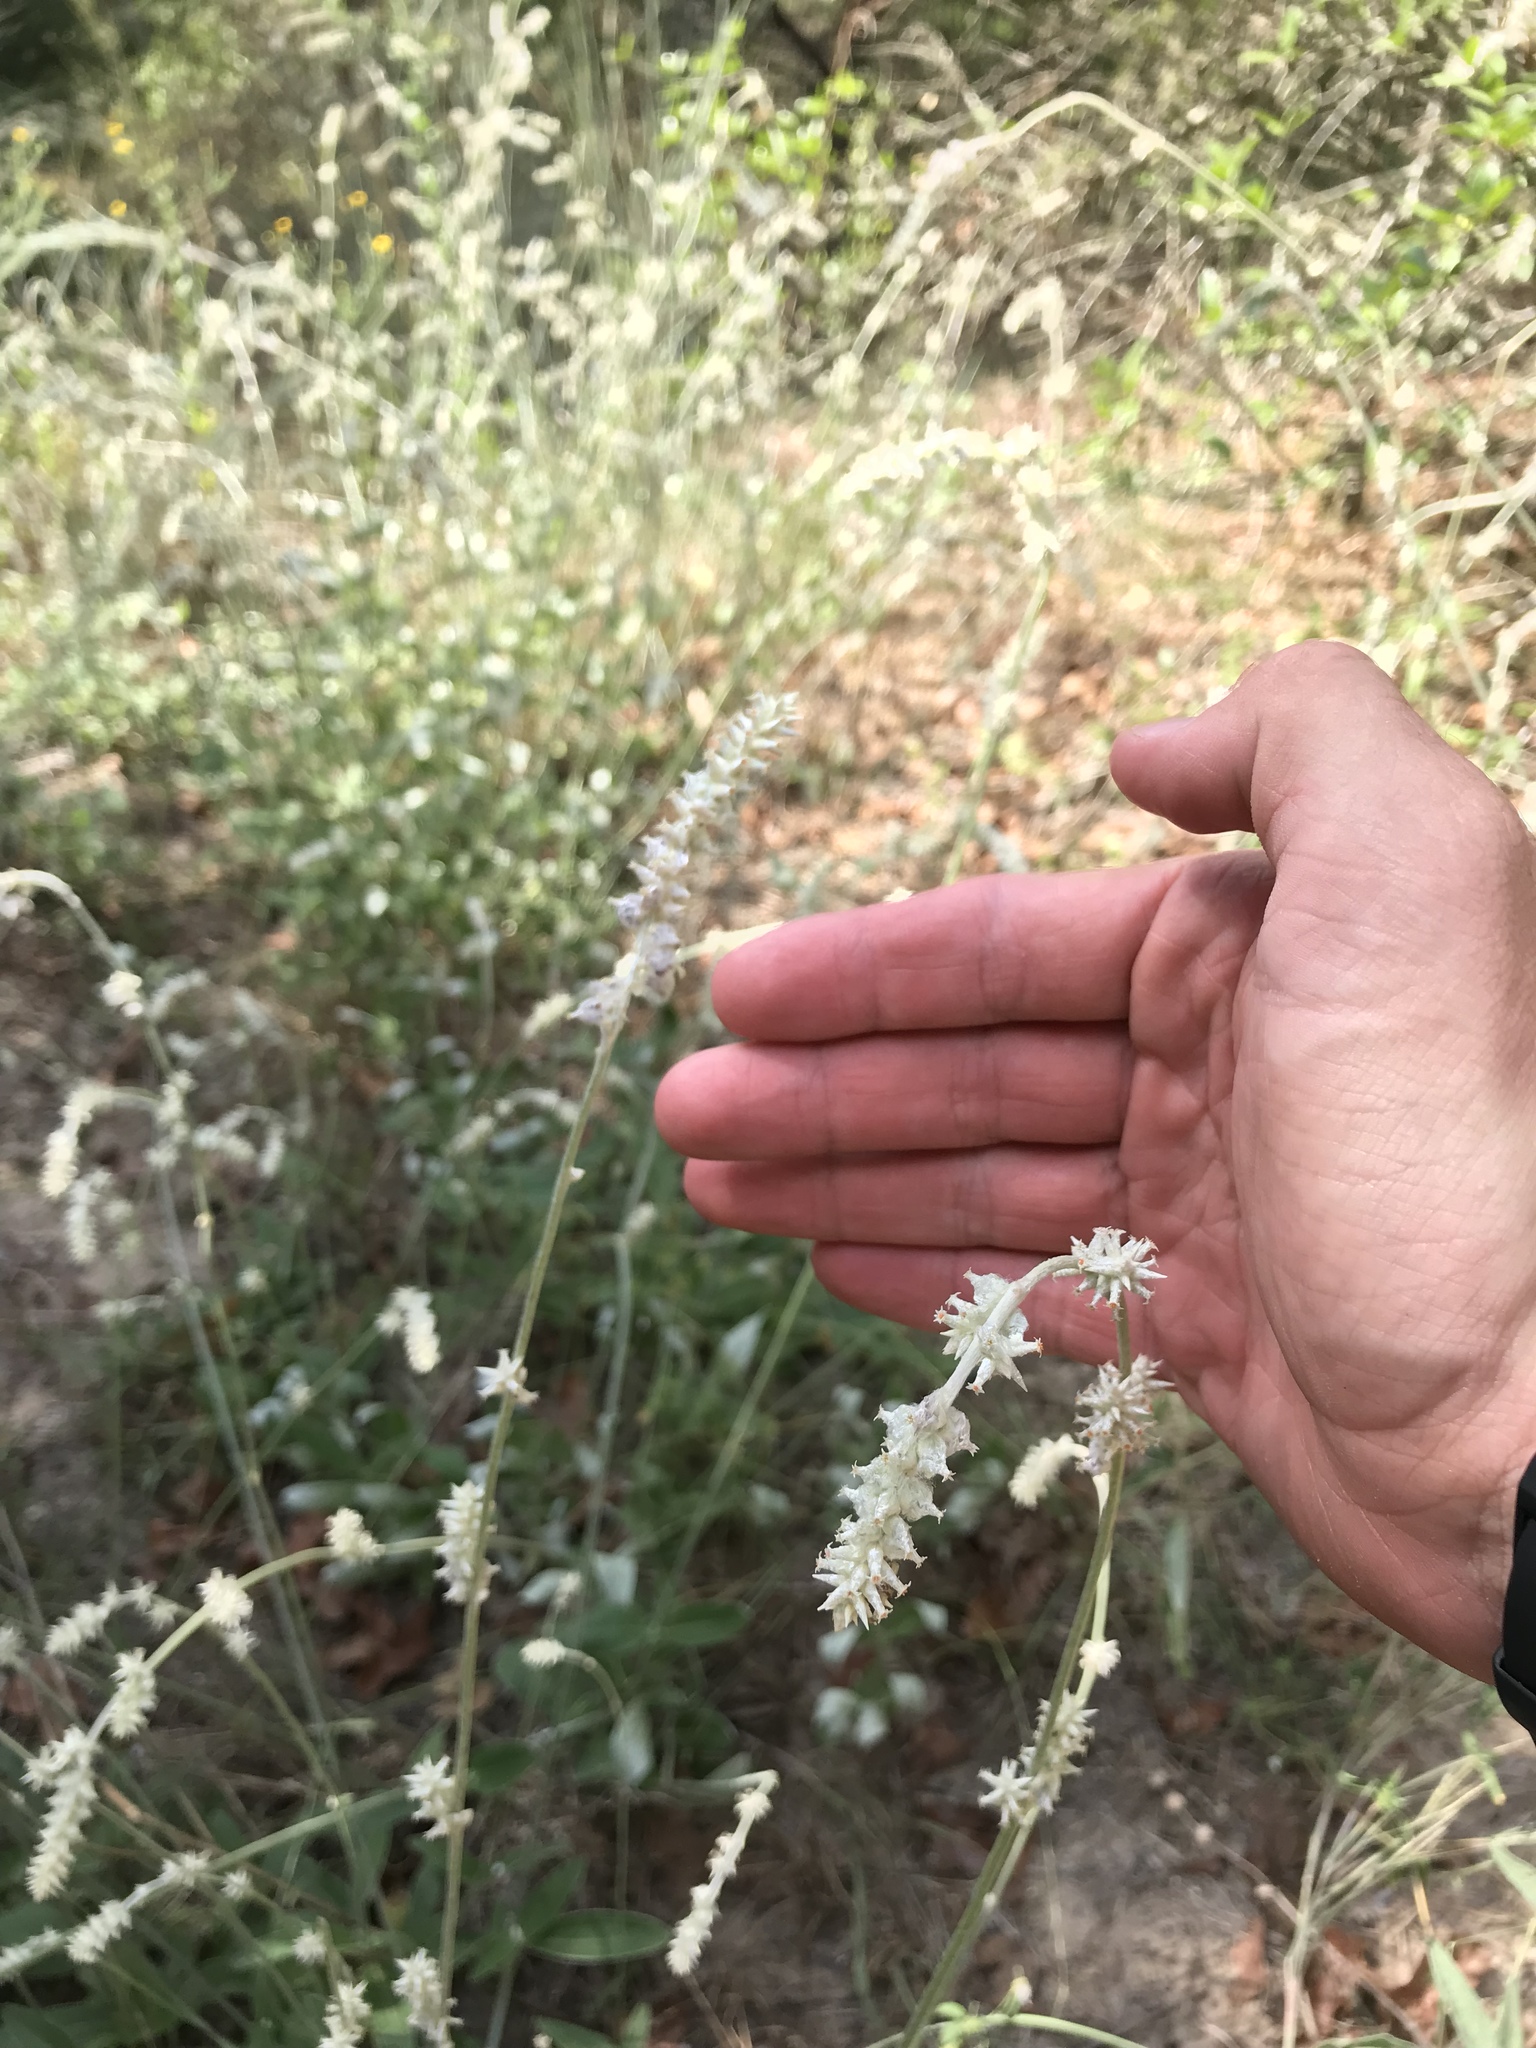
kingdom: Plantae
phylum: Tracheophyta
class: Magnoliopsida
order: Caryophyllales
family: Amaranthaceae
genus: Froelichia
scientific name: Froelichia floridana
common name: Florida snake-cotton
